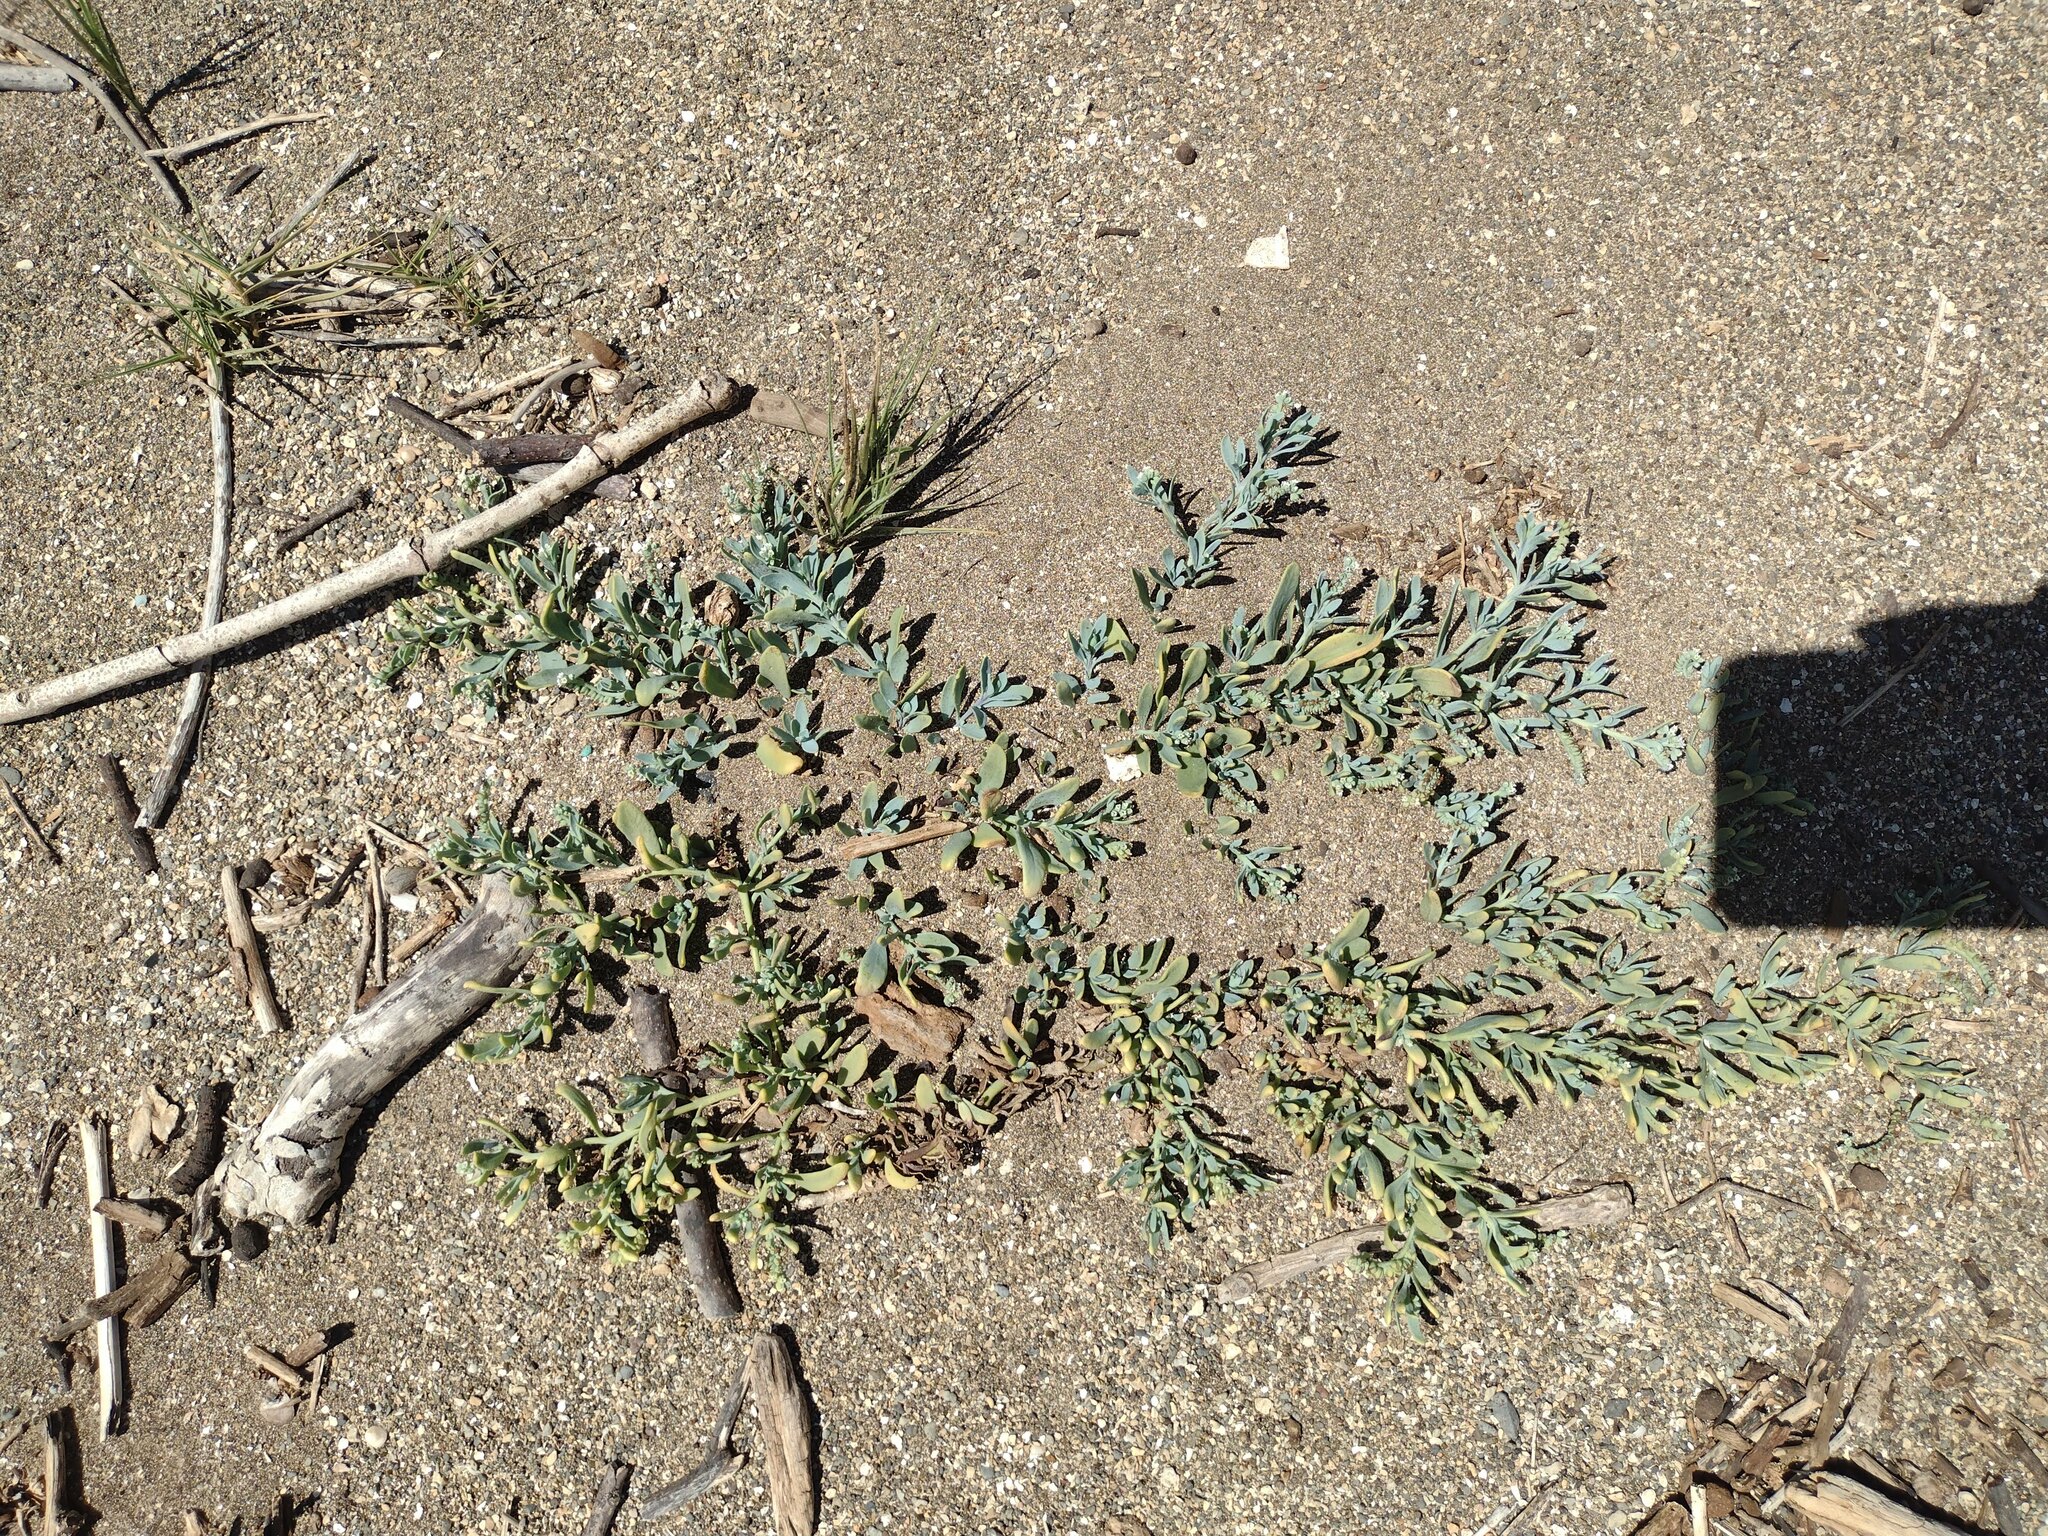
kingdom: Plantae
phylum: Tracheophyta
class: Magnoliopsida
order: Boraginales
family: Heliotropiaceae
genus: Heliotropium
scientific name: Heliotropium curassavicum
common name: Seaside heliotrope
